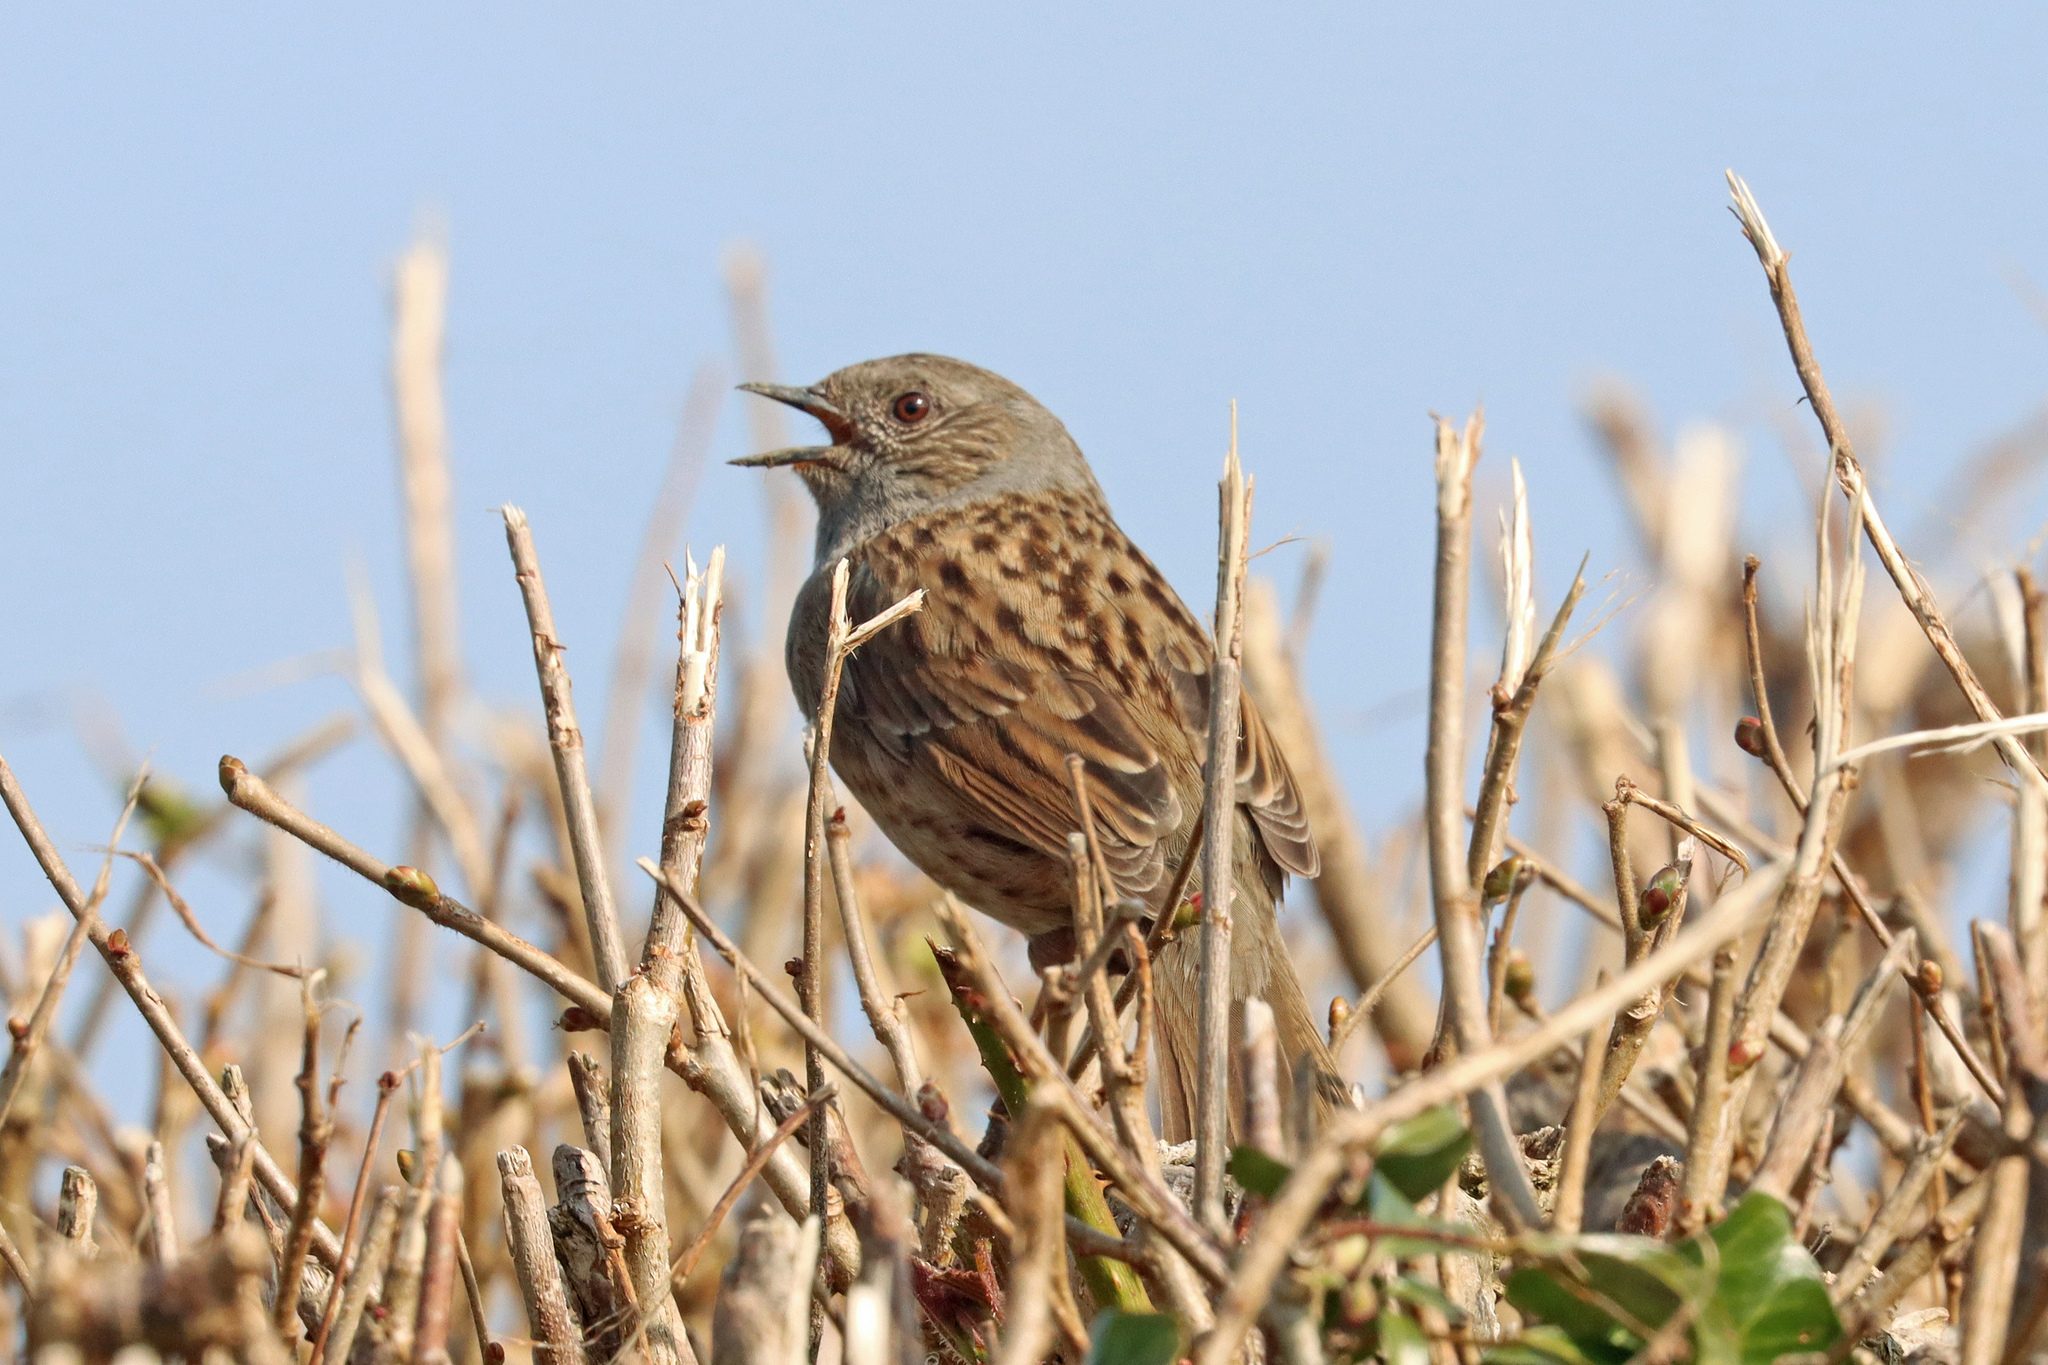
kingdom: Animalia
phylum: Chordata
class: Aves
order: Passeriformes
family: Prunellidae
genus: Prunella
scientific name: Prunella modularis
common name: Dunnock
